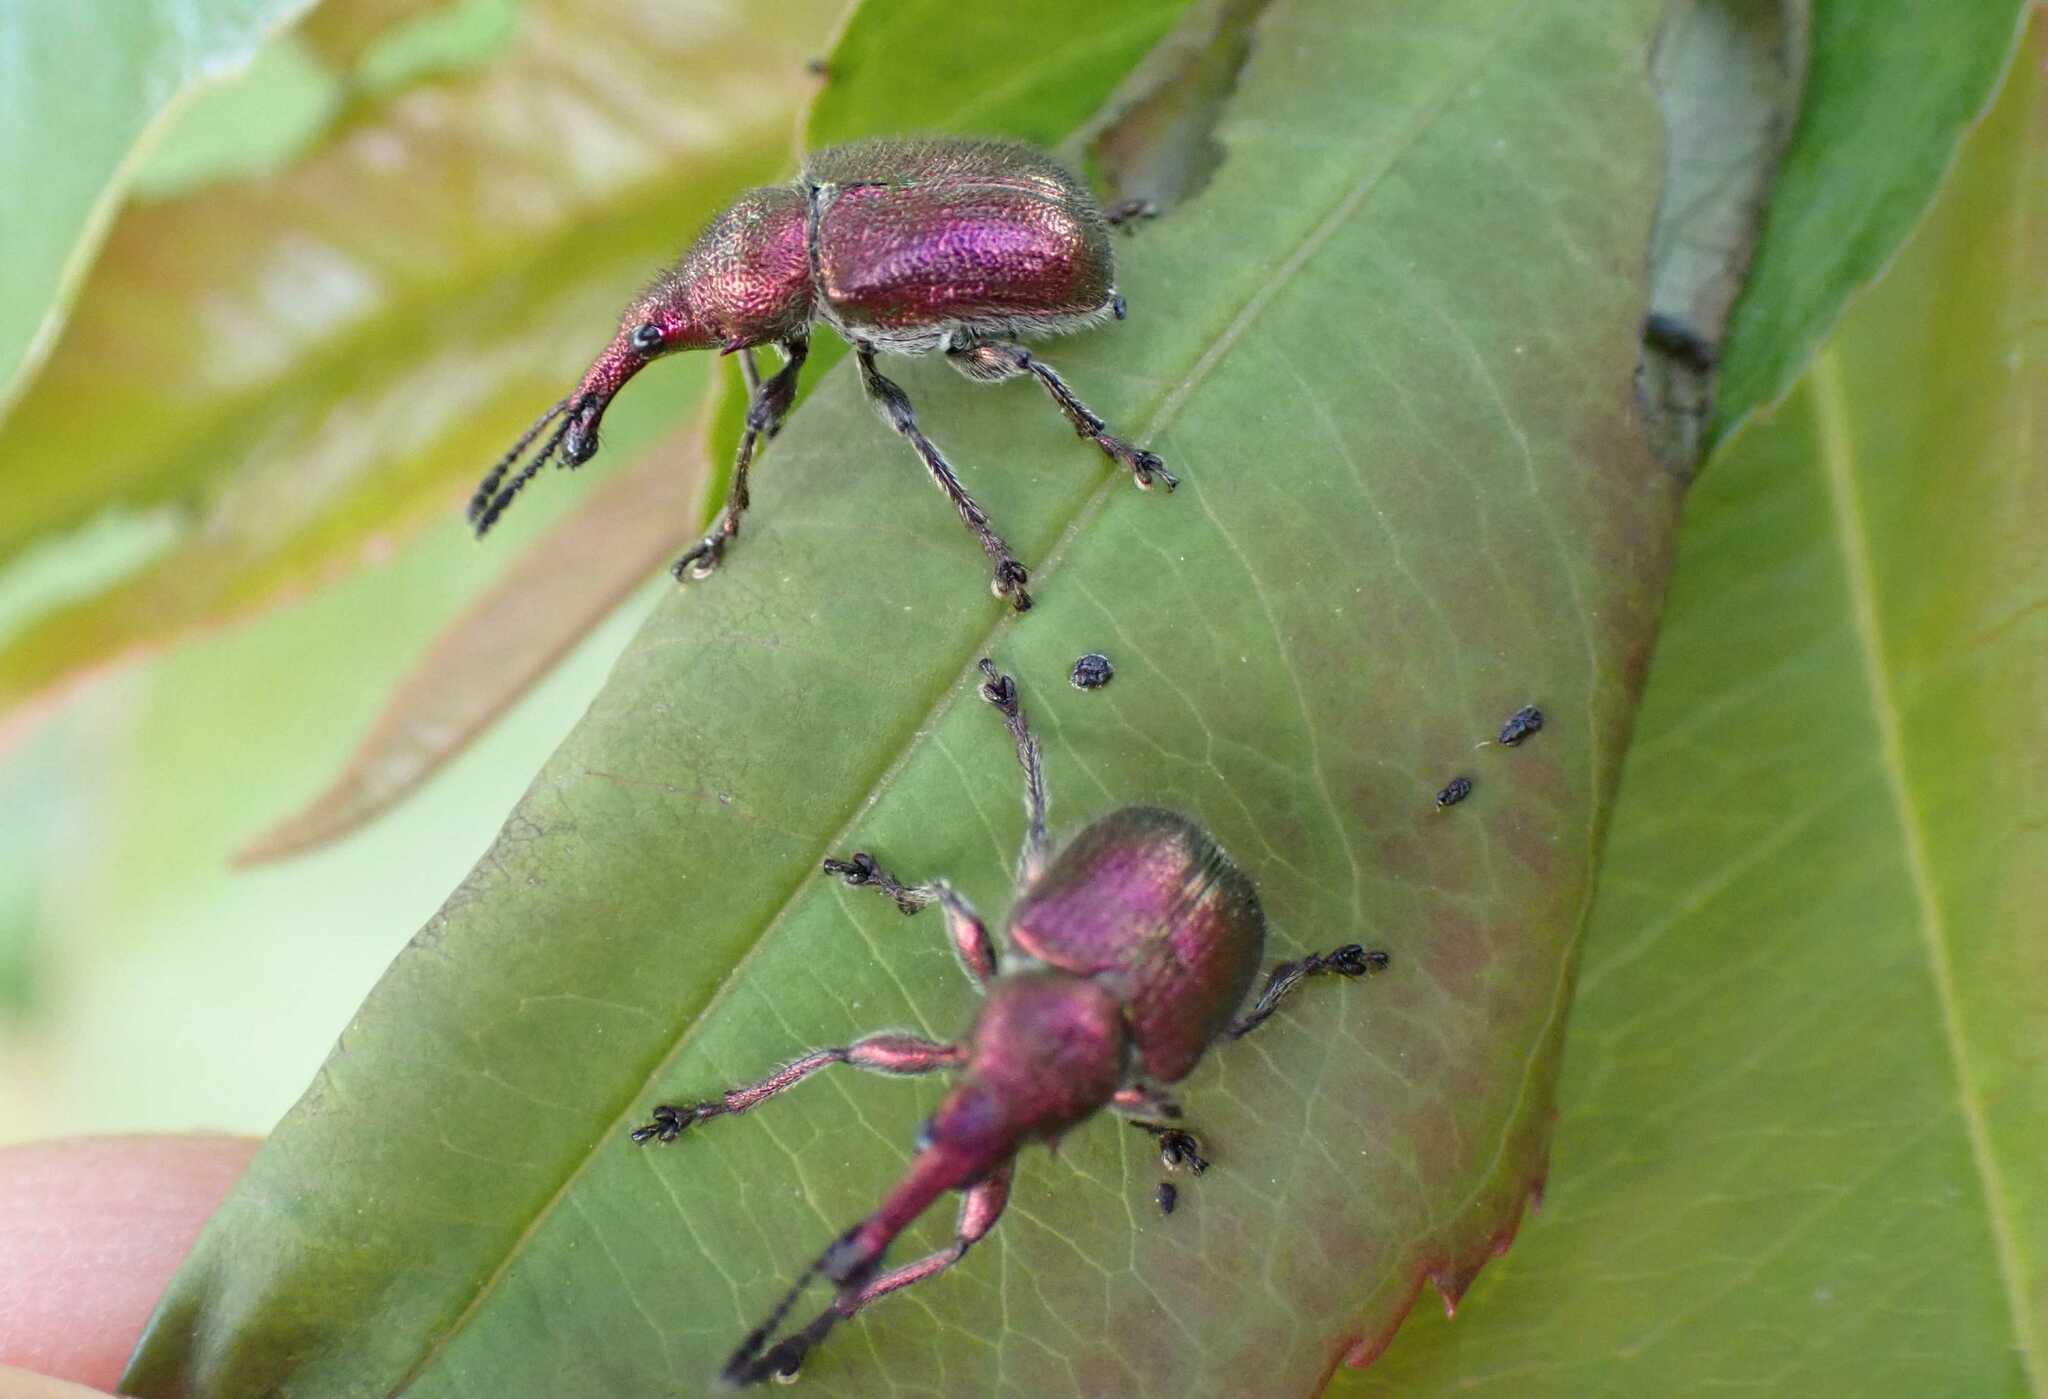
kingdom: Animalia
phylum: Arthropoda
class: Insecta
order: Coleoptera
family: Attelabidae
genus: Rhynchites
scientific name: Rhynchites auratus
